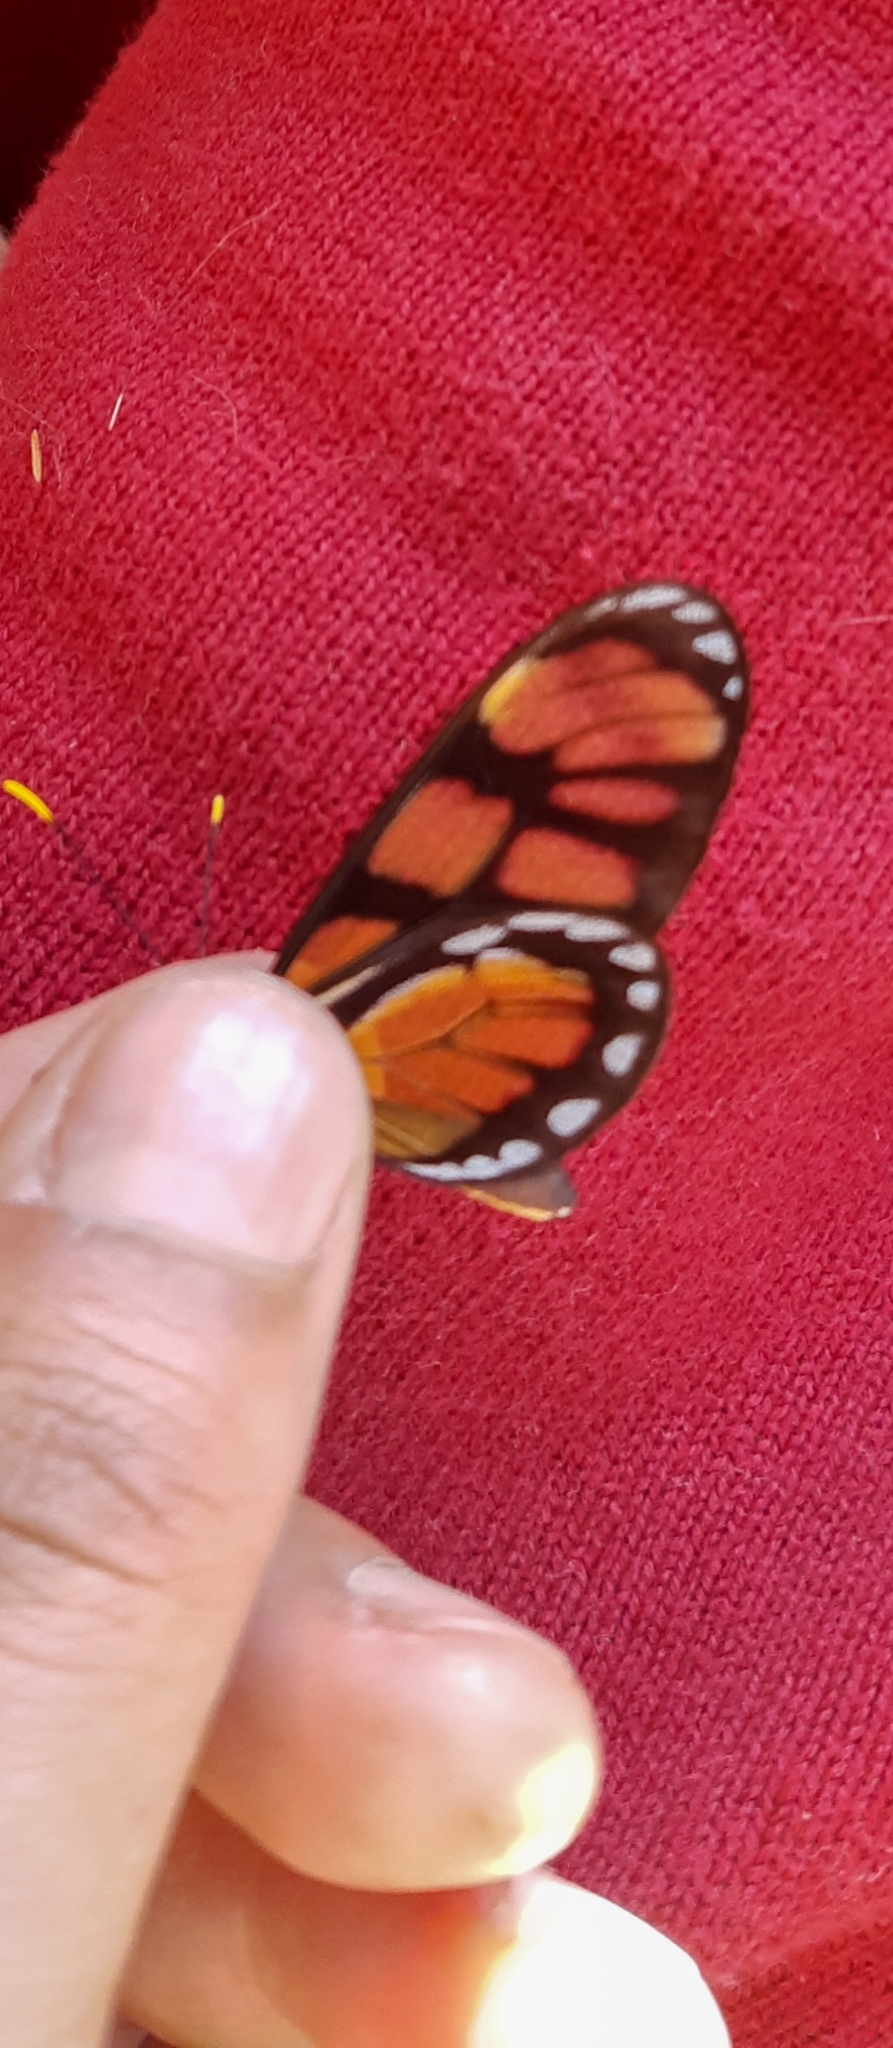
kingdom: Animalia
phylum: Arthropoda
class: Insecta
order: Lepidoptera
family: Nymphalidae
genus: Dircenna
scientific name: Dircenna dero
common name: Dero clearwing
